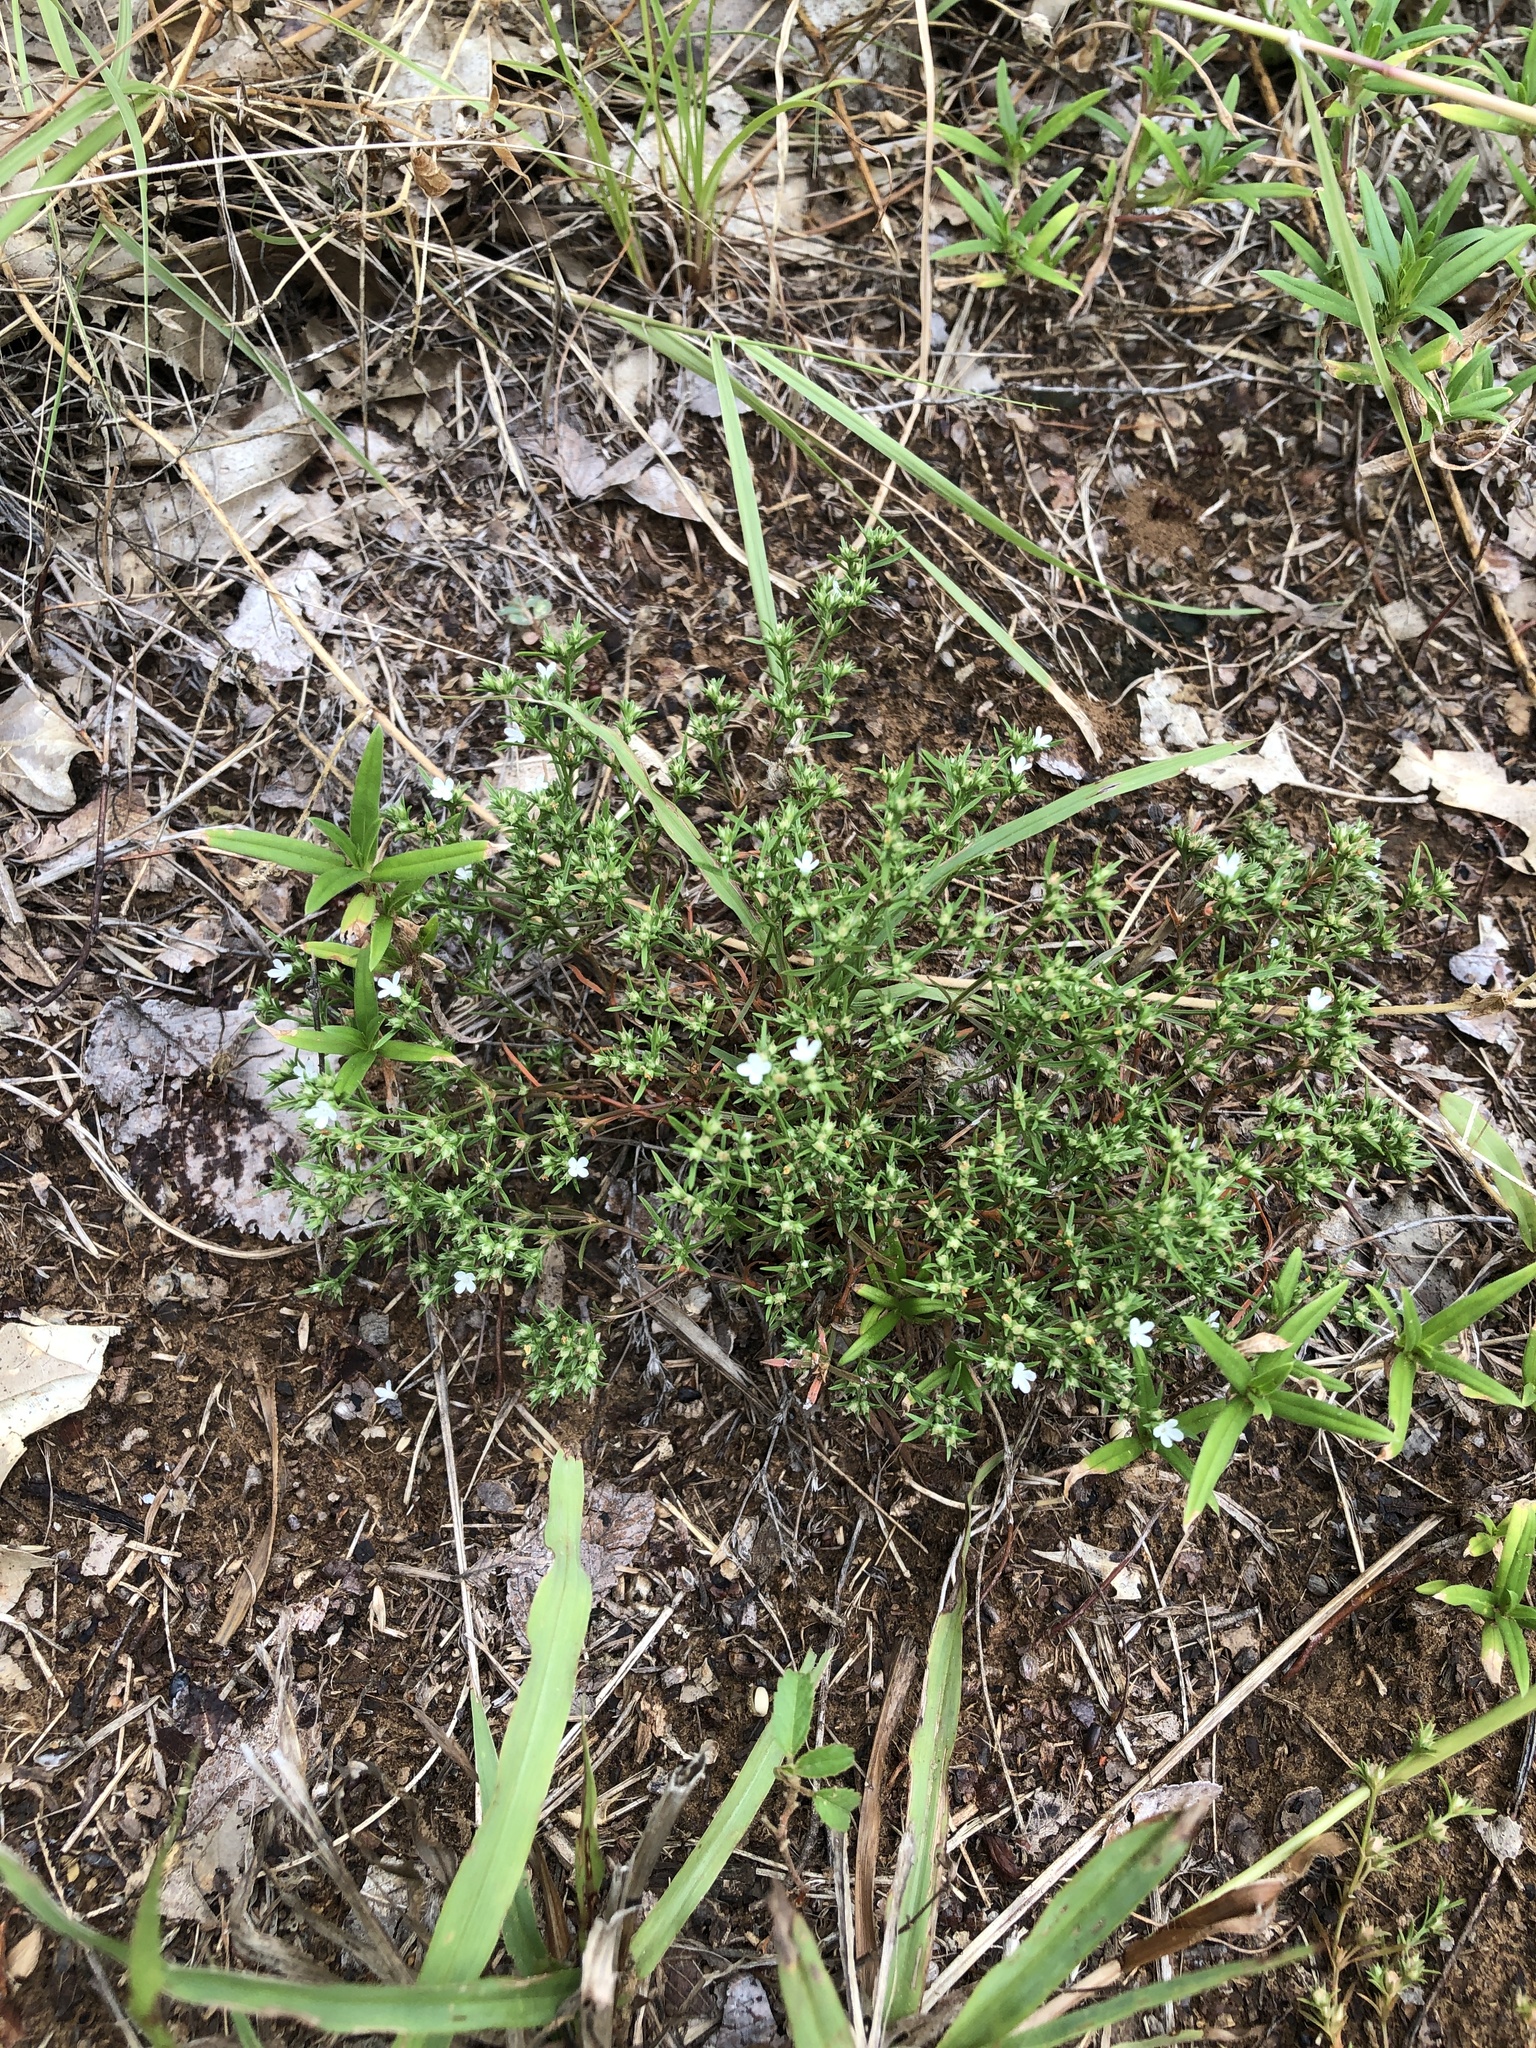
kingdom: Plantae
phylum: Tracheophyta
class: Magnoliopsida
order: Lamiales
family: Tetrachondraceae
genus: Polypremum
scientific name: Polypremum procumbens
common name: Juniper-leaf
